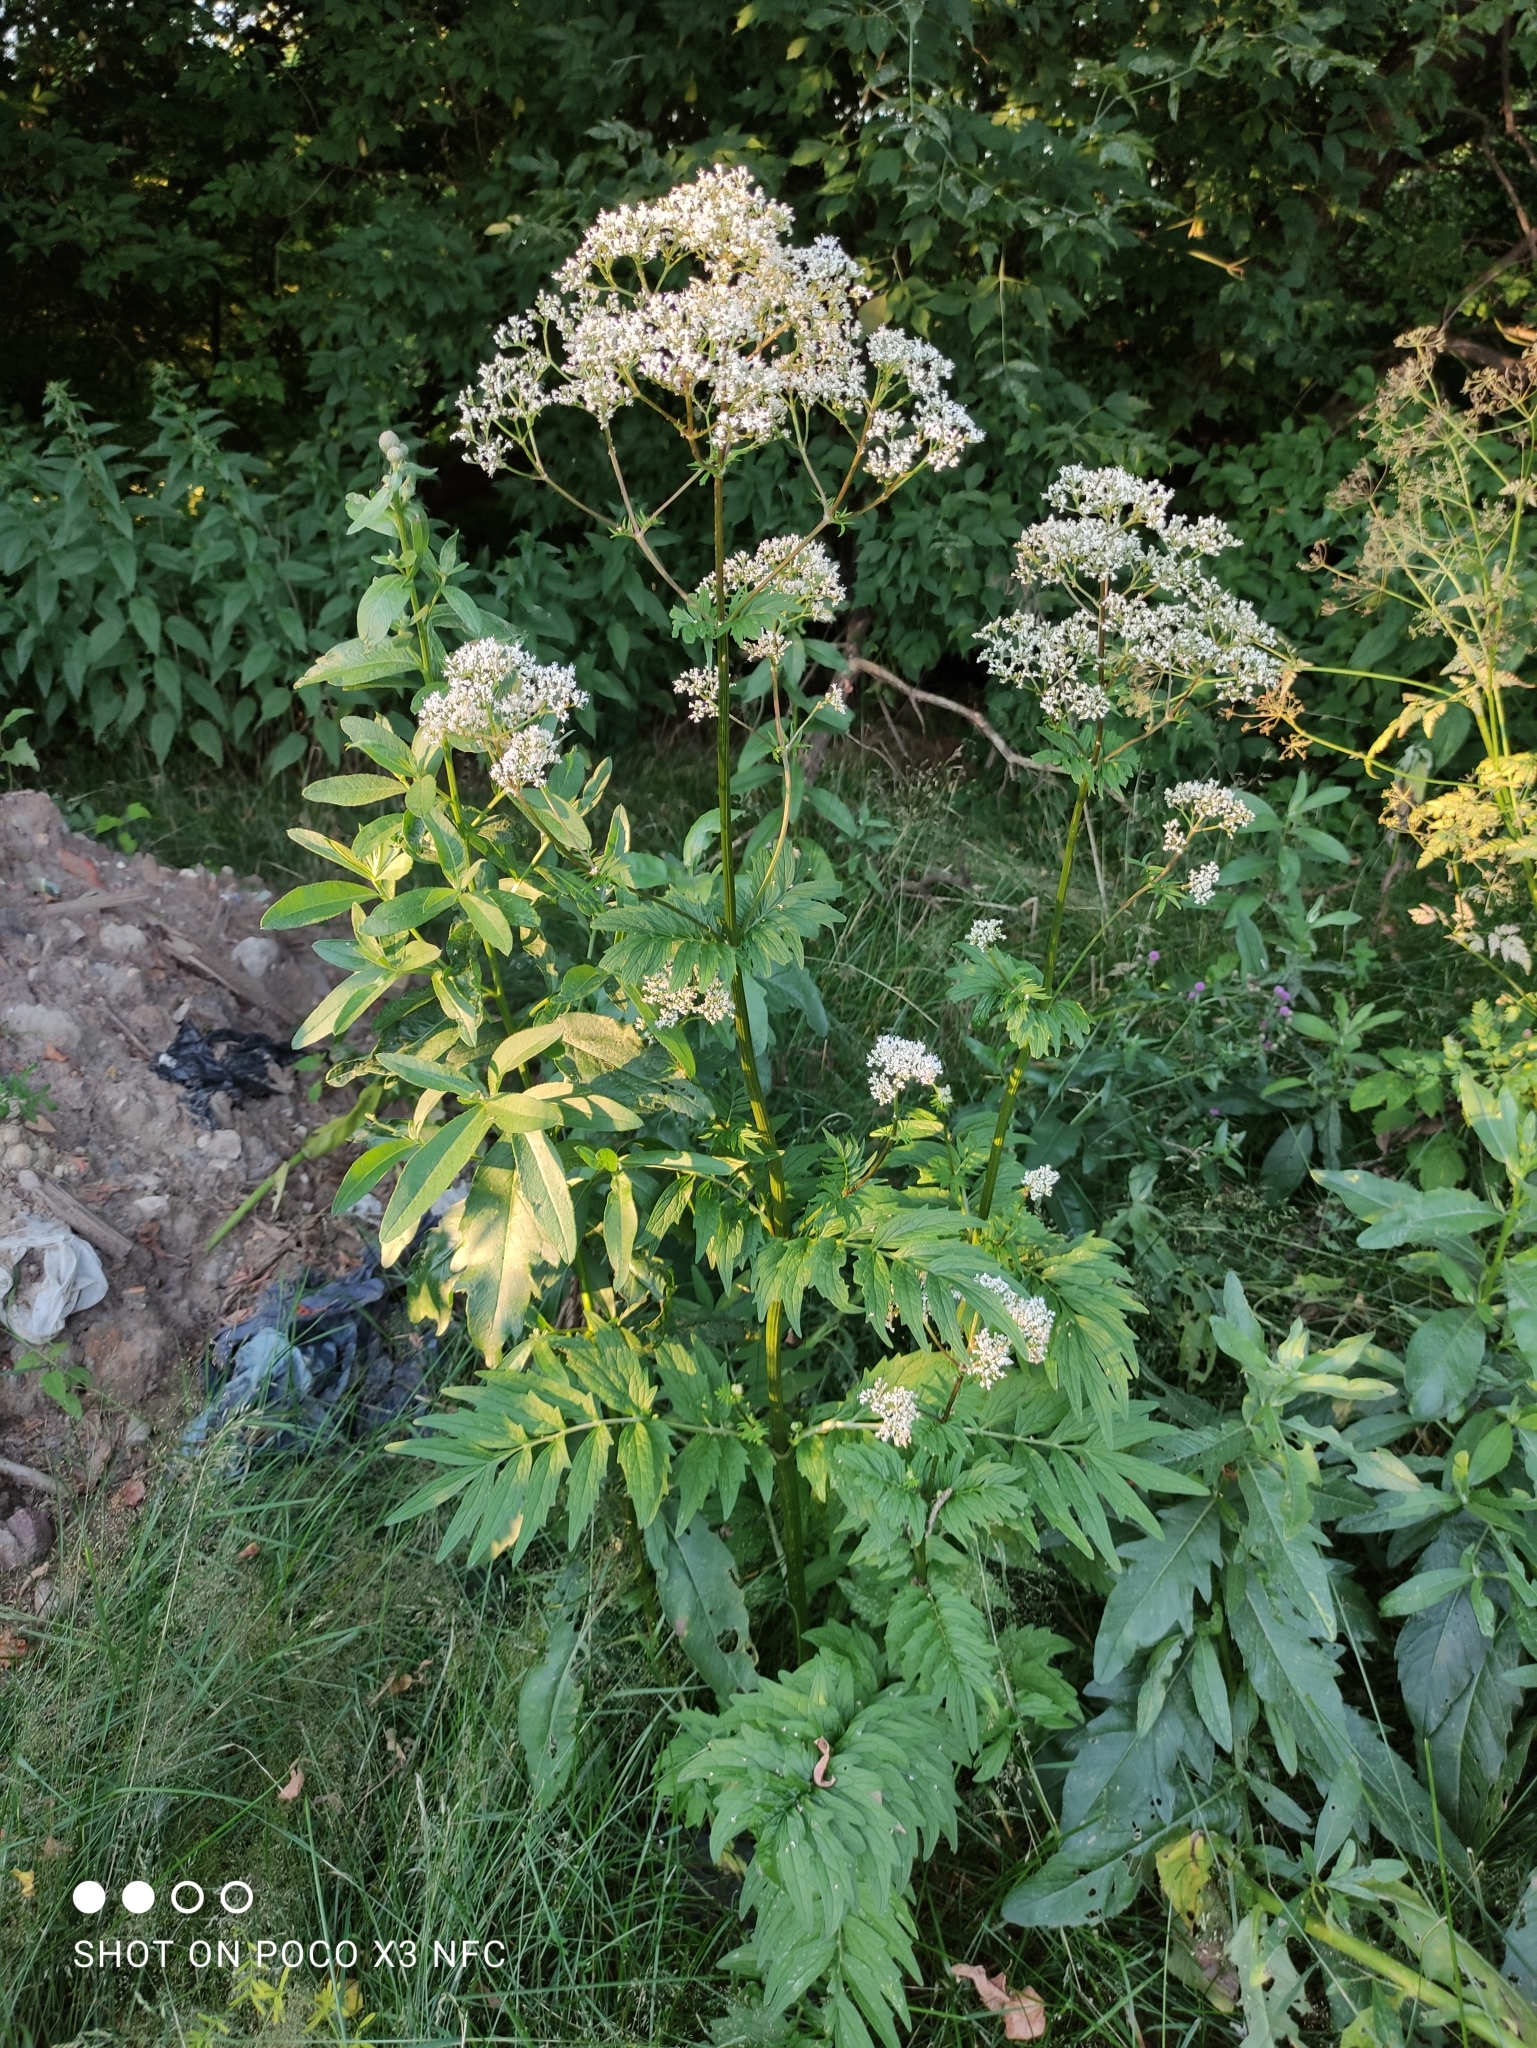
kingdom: Plantae
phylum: Tracheophyta
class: Magnoliopsida
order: Dipsacales
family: Caprifoliaceae
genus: Valeriana
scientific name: Valeriana officinalis
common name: Common valerian
